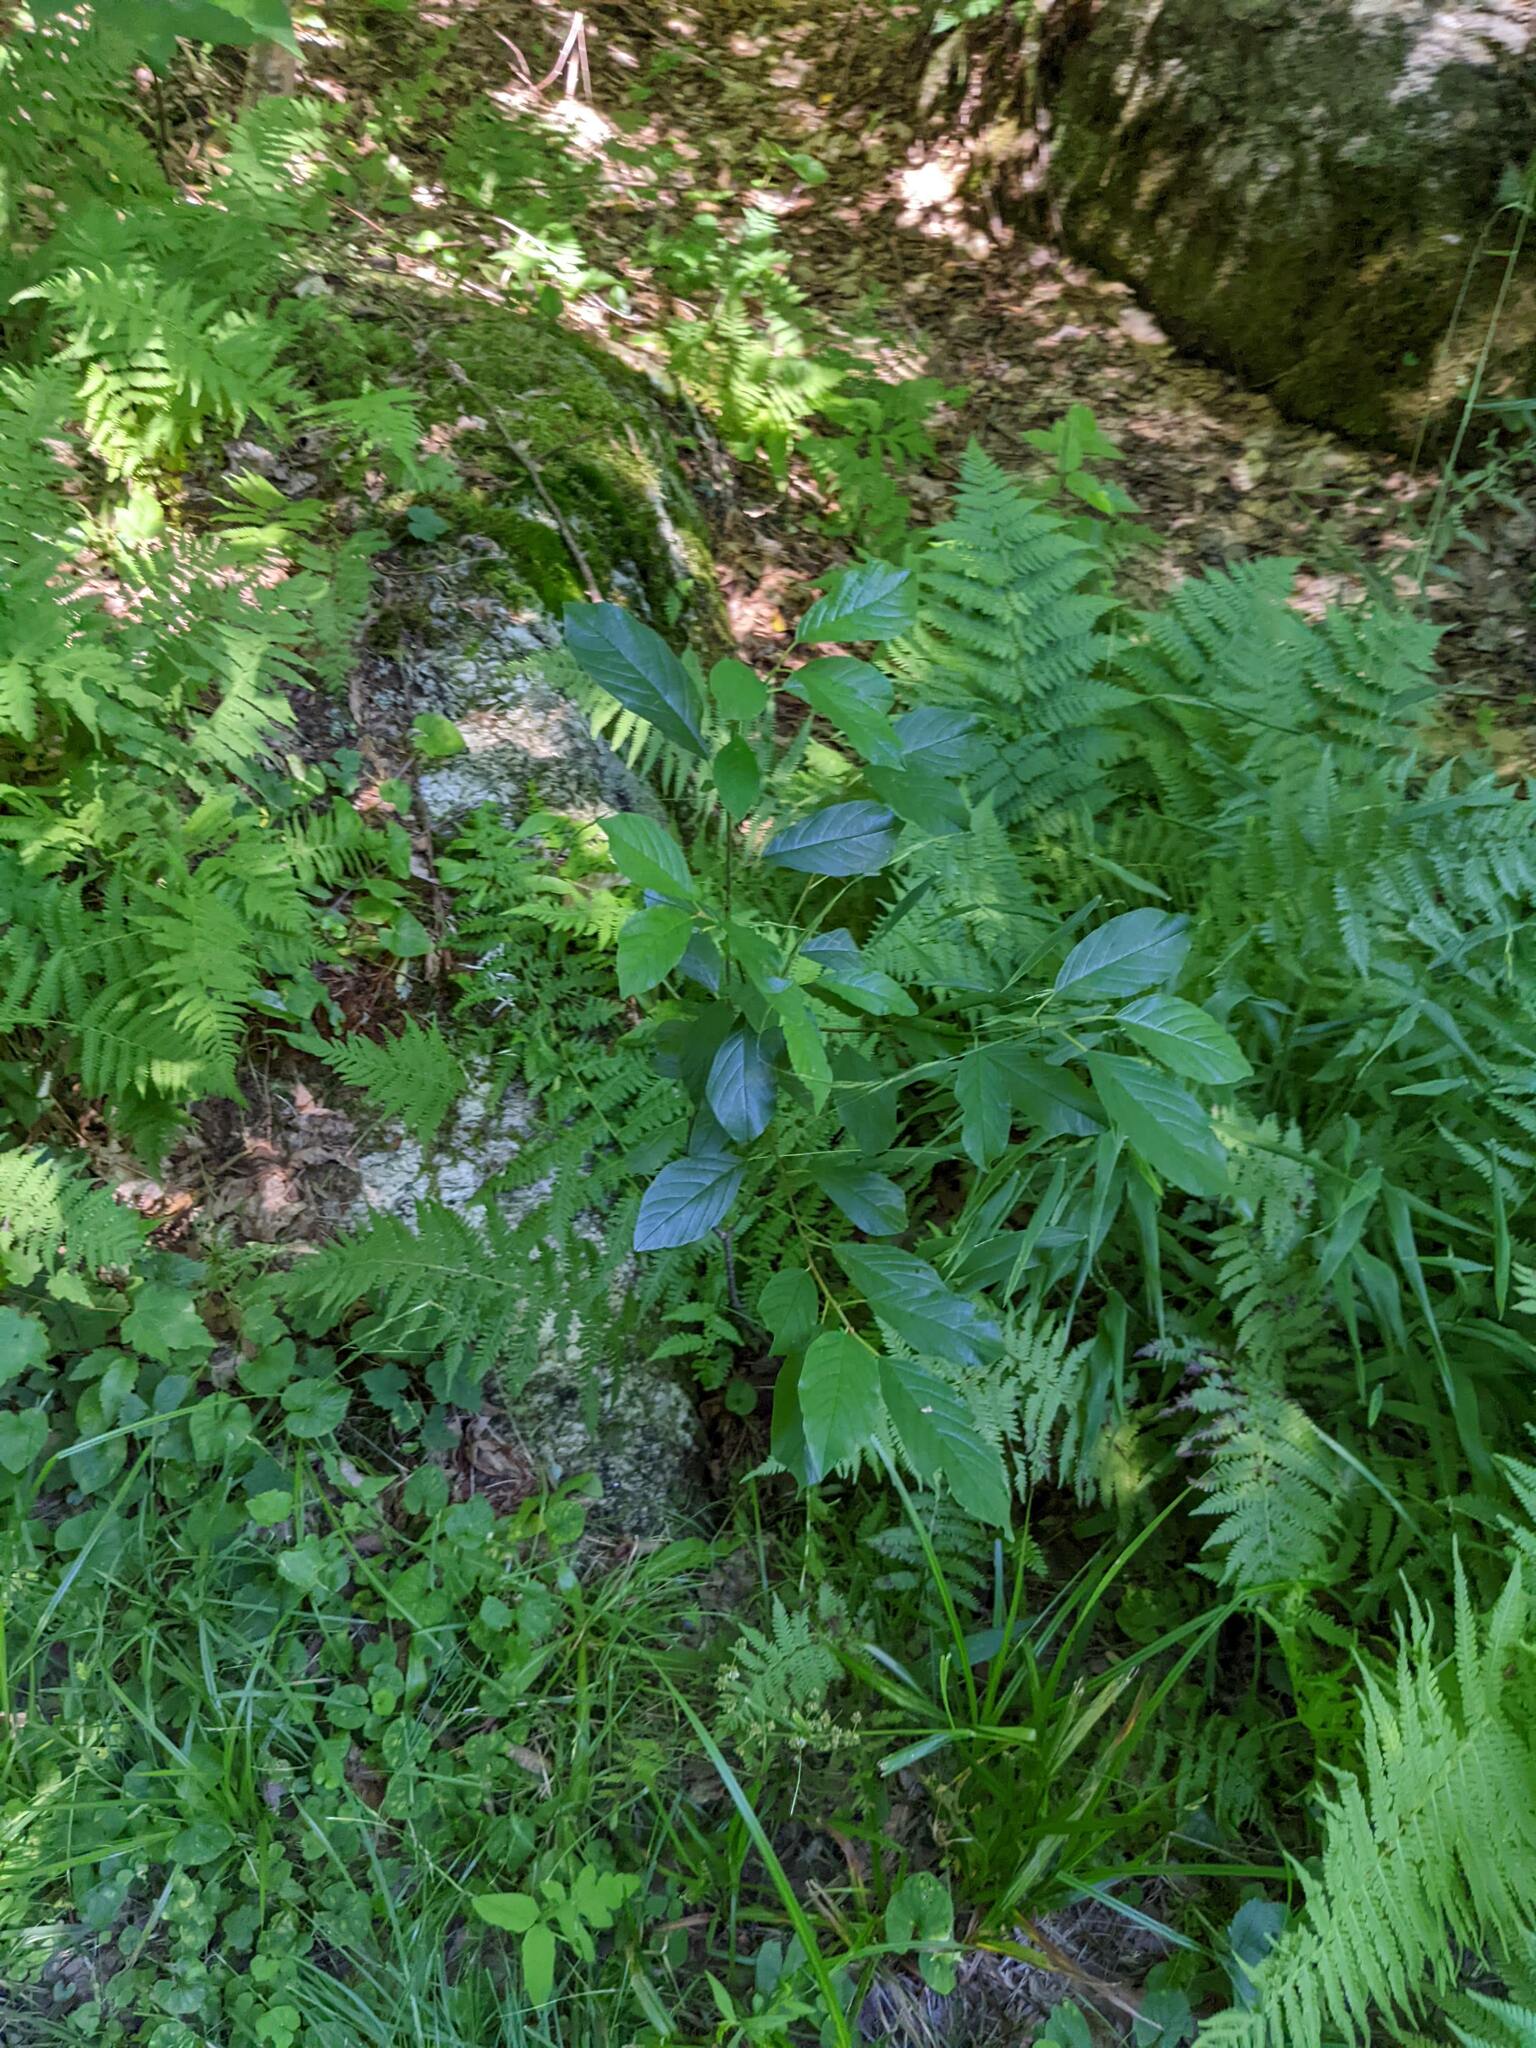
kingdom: Plantae
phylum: Tracheophyta
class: Magnoliopsida
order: Rosales
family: Rhamnaceae
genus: Frangula
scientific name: Frangula alnus
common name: Alder buckthorn
